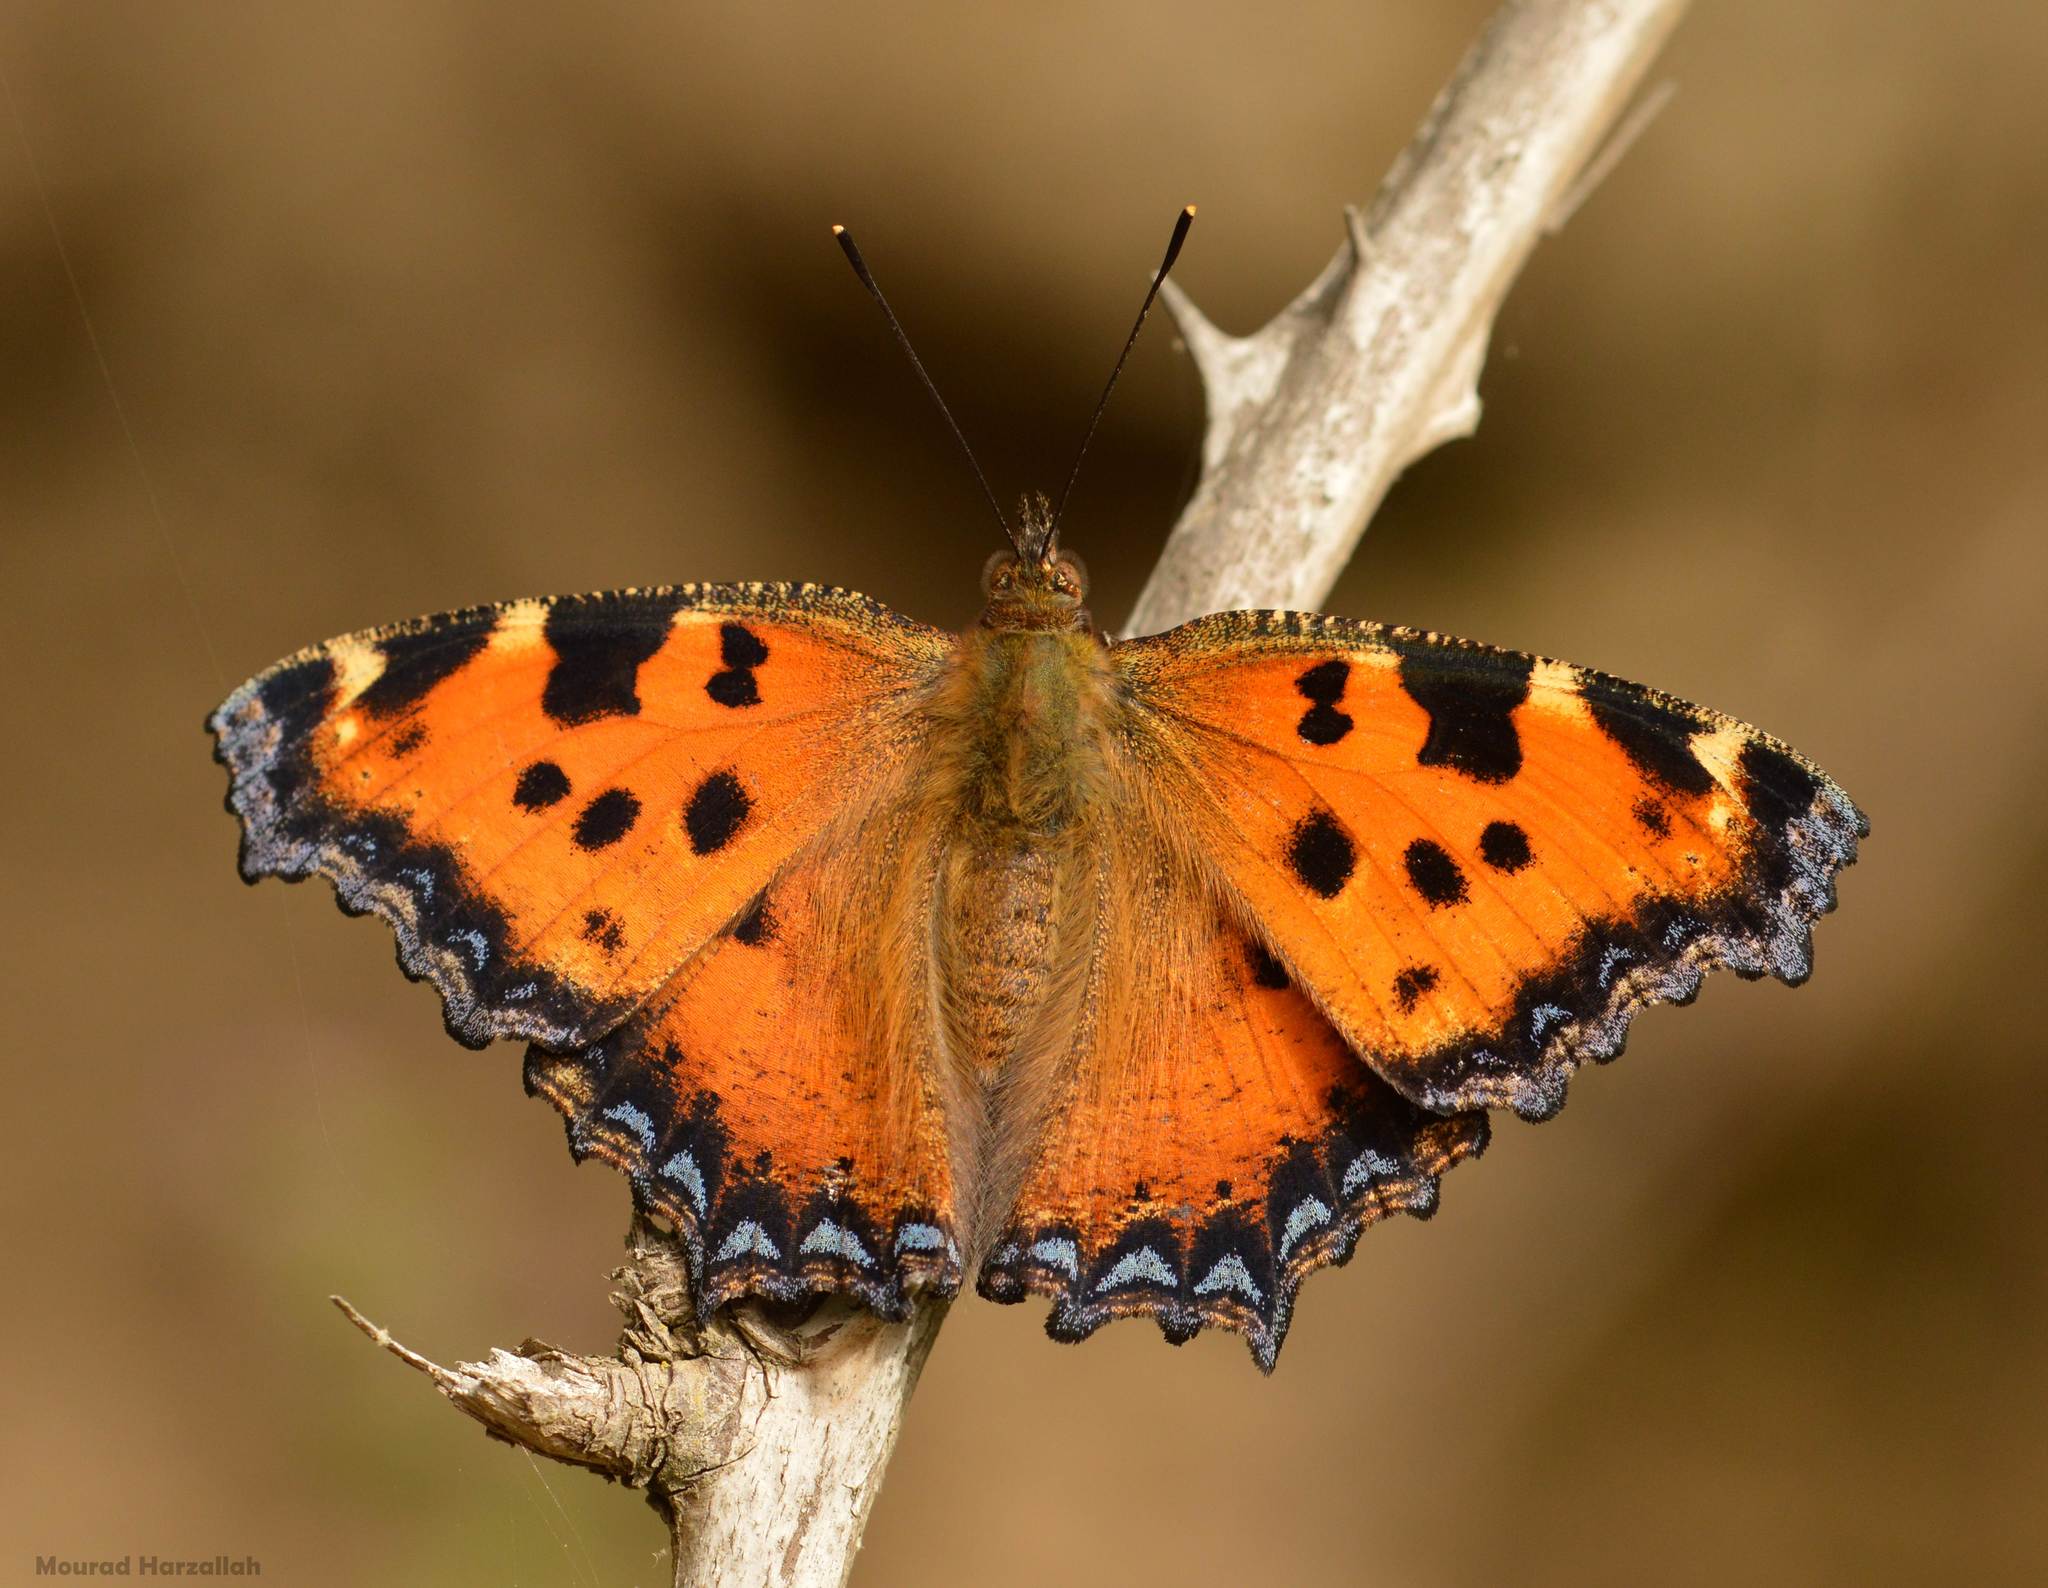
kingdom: Animalia
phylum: Arthropoda
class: Insecta
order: Lepidoptera
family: Nymphalidae
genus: Nymphalis
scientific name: Nymphalis polychloros
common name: Large tortoiseshell
